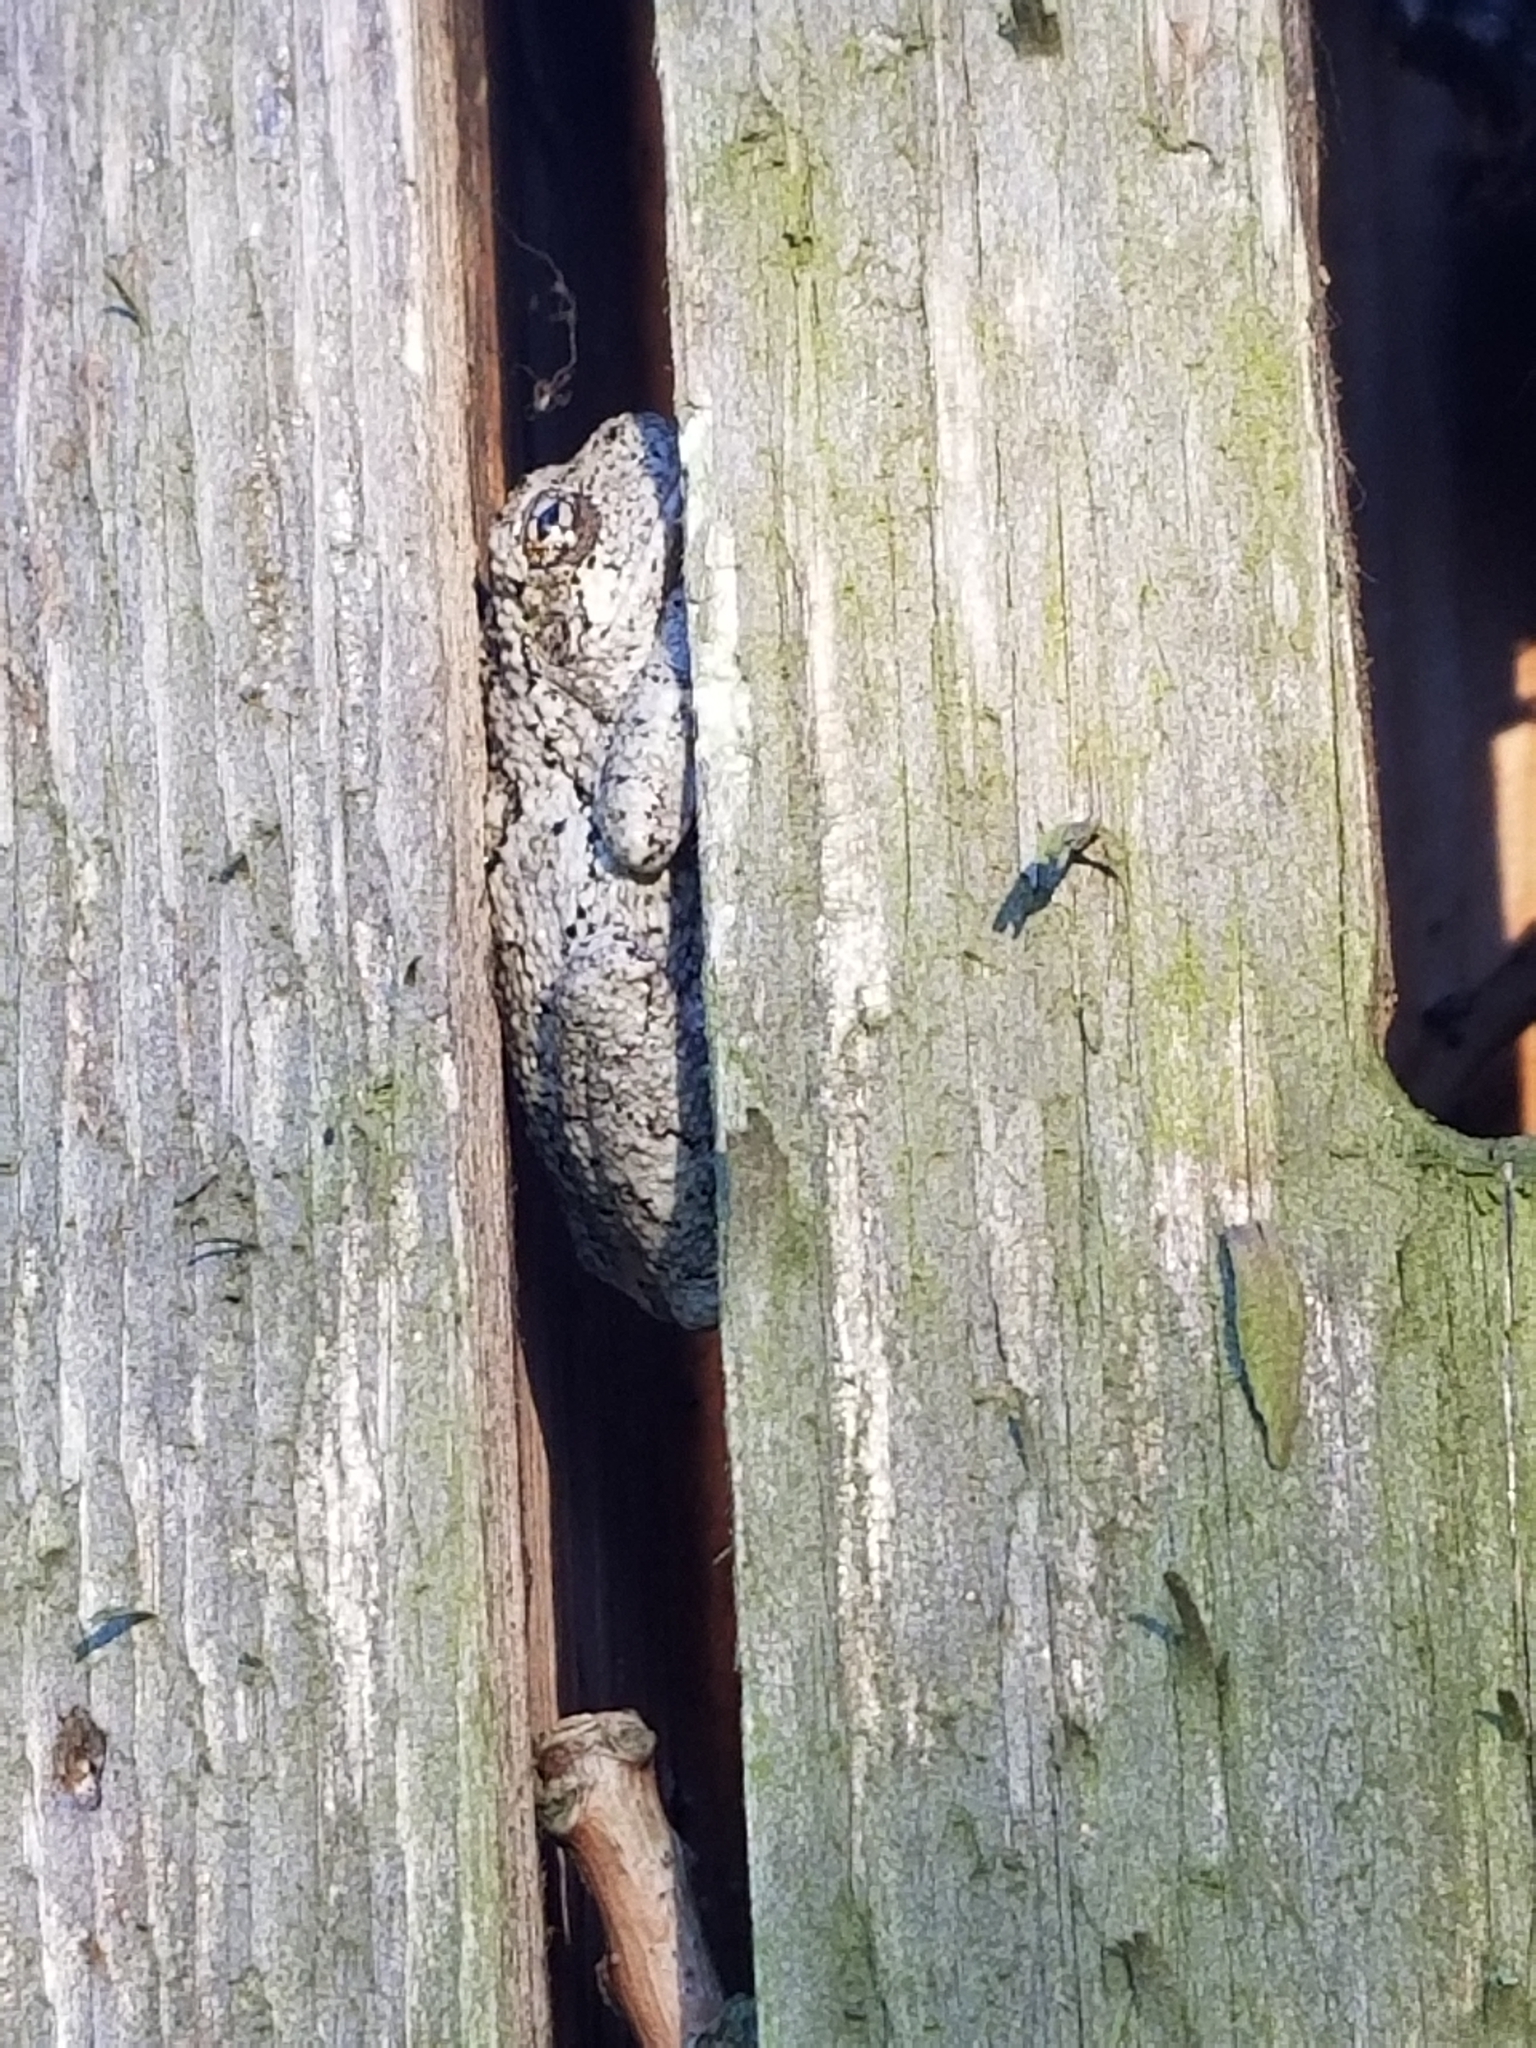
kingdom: Animalia
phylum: Chordata
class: Amphibia
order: Anura
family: Hylidae
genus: Dryophytes
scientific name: Dryophytes versicolor
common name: Gray treefrog
